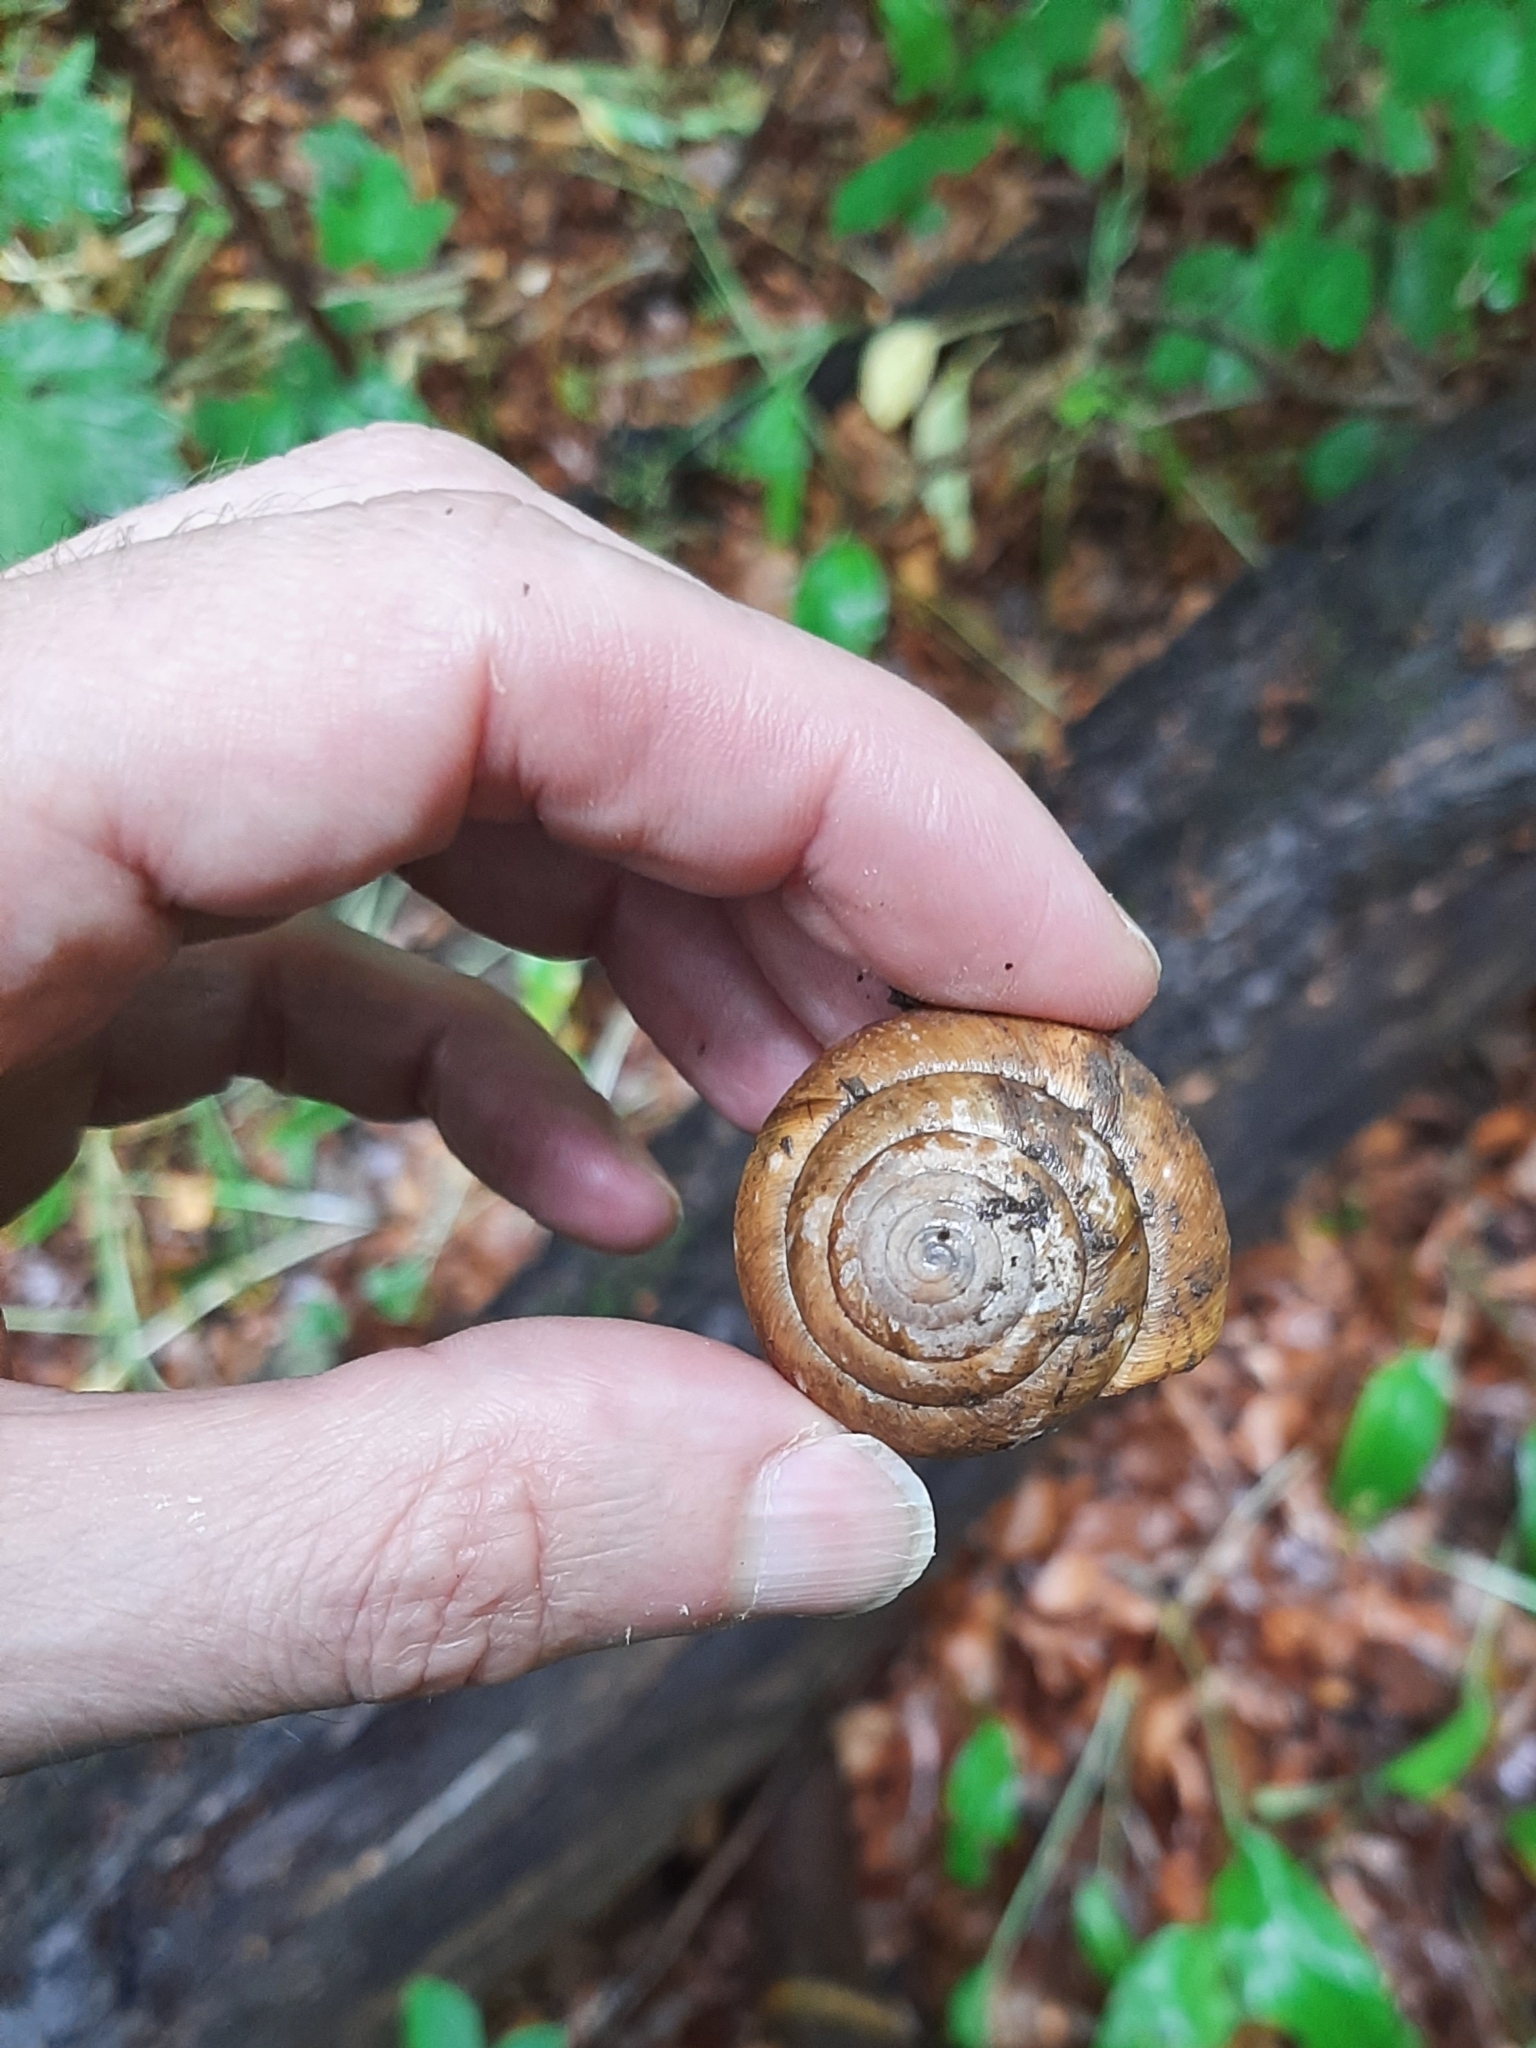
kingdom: Animalia
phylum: Mollusca
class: Gastropoda
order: Stylommatophora
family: Zonitidae
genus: Aegopis
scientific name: Aegopis verticillus
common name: Giant glass snail
